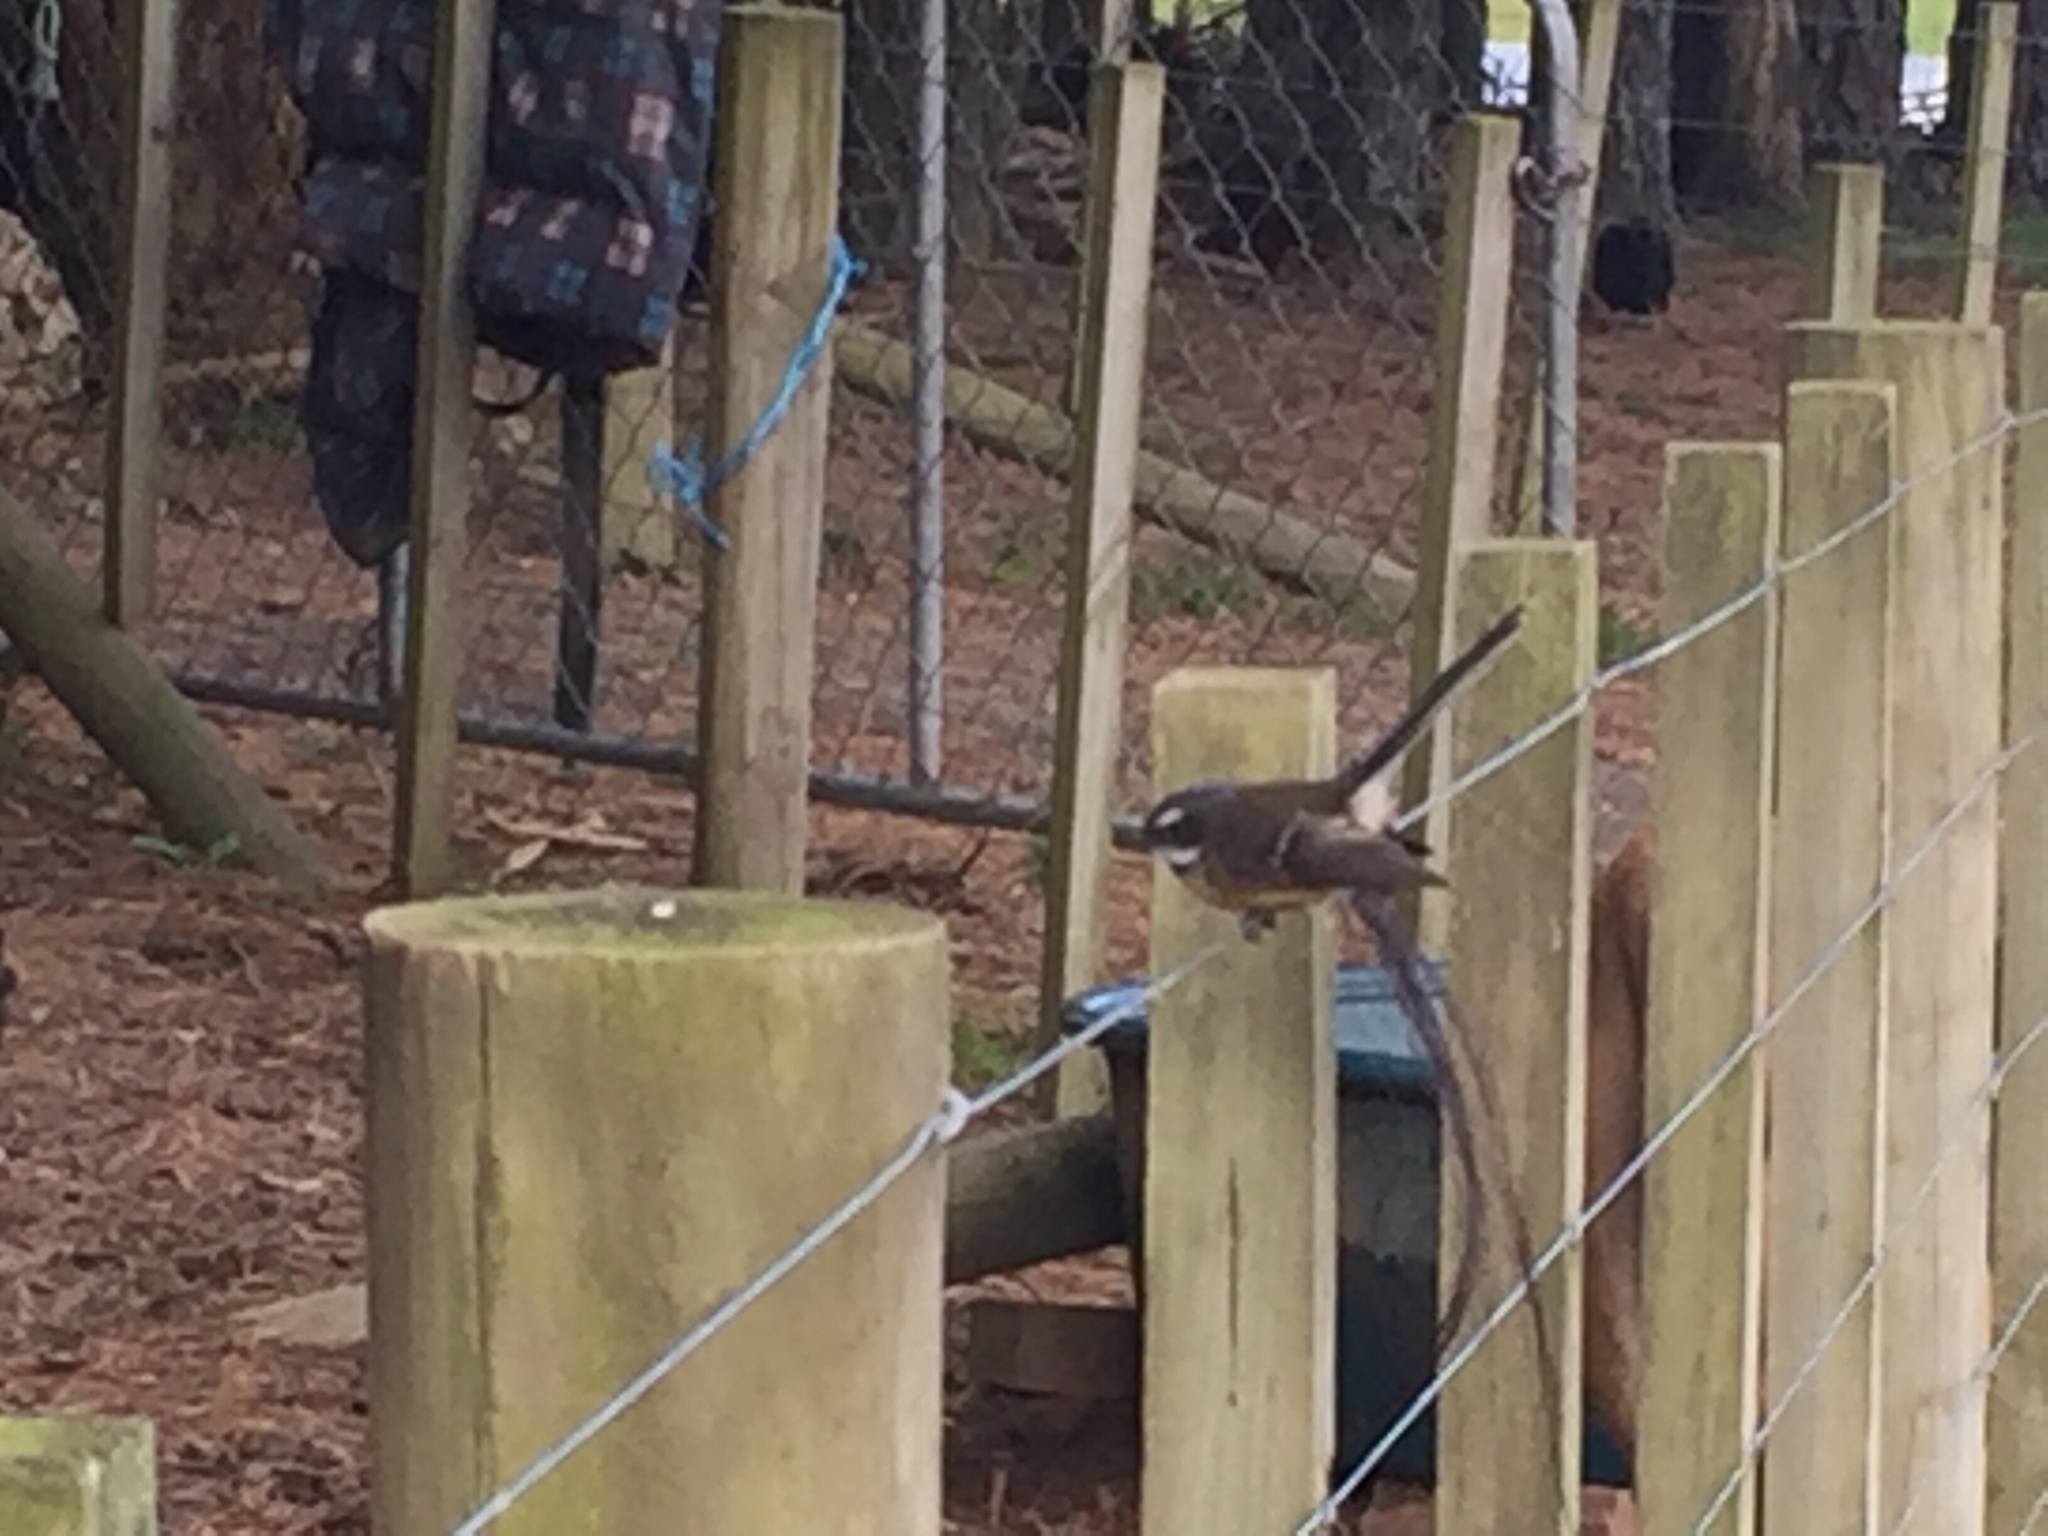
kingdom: Animalia
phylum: Chordata
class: Aves
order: Passeriformes
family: Rhipiduridae
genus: Rhipidura
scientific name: Rhipidura fuliginosa
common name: New zealand fantail
